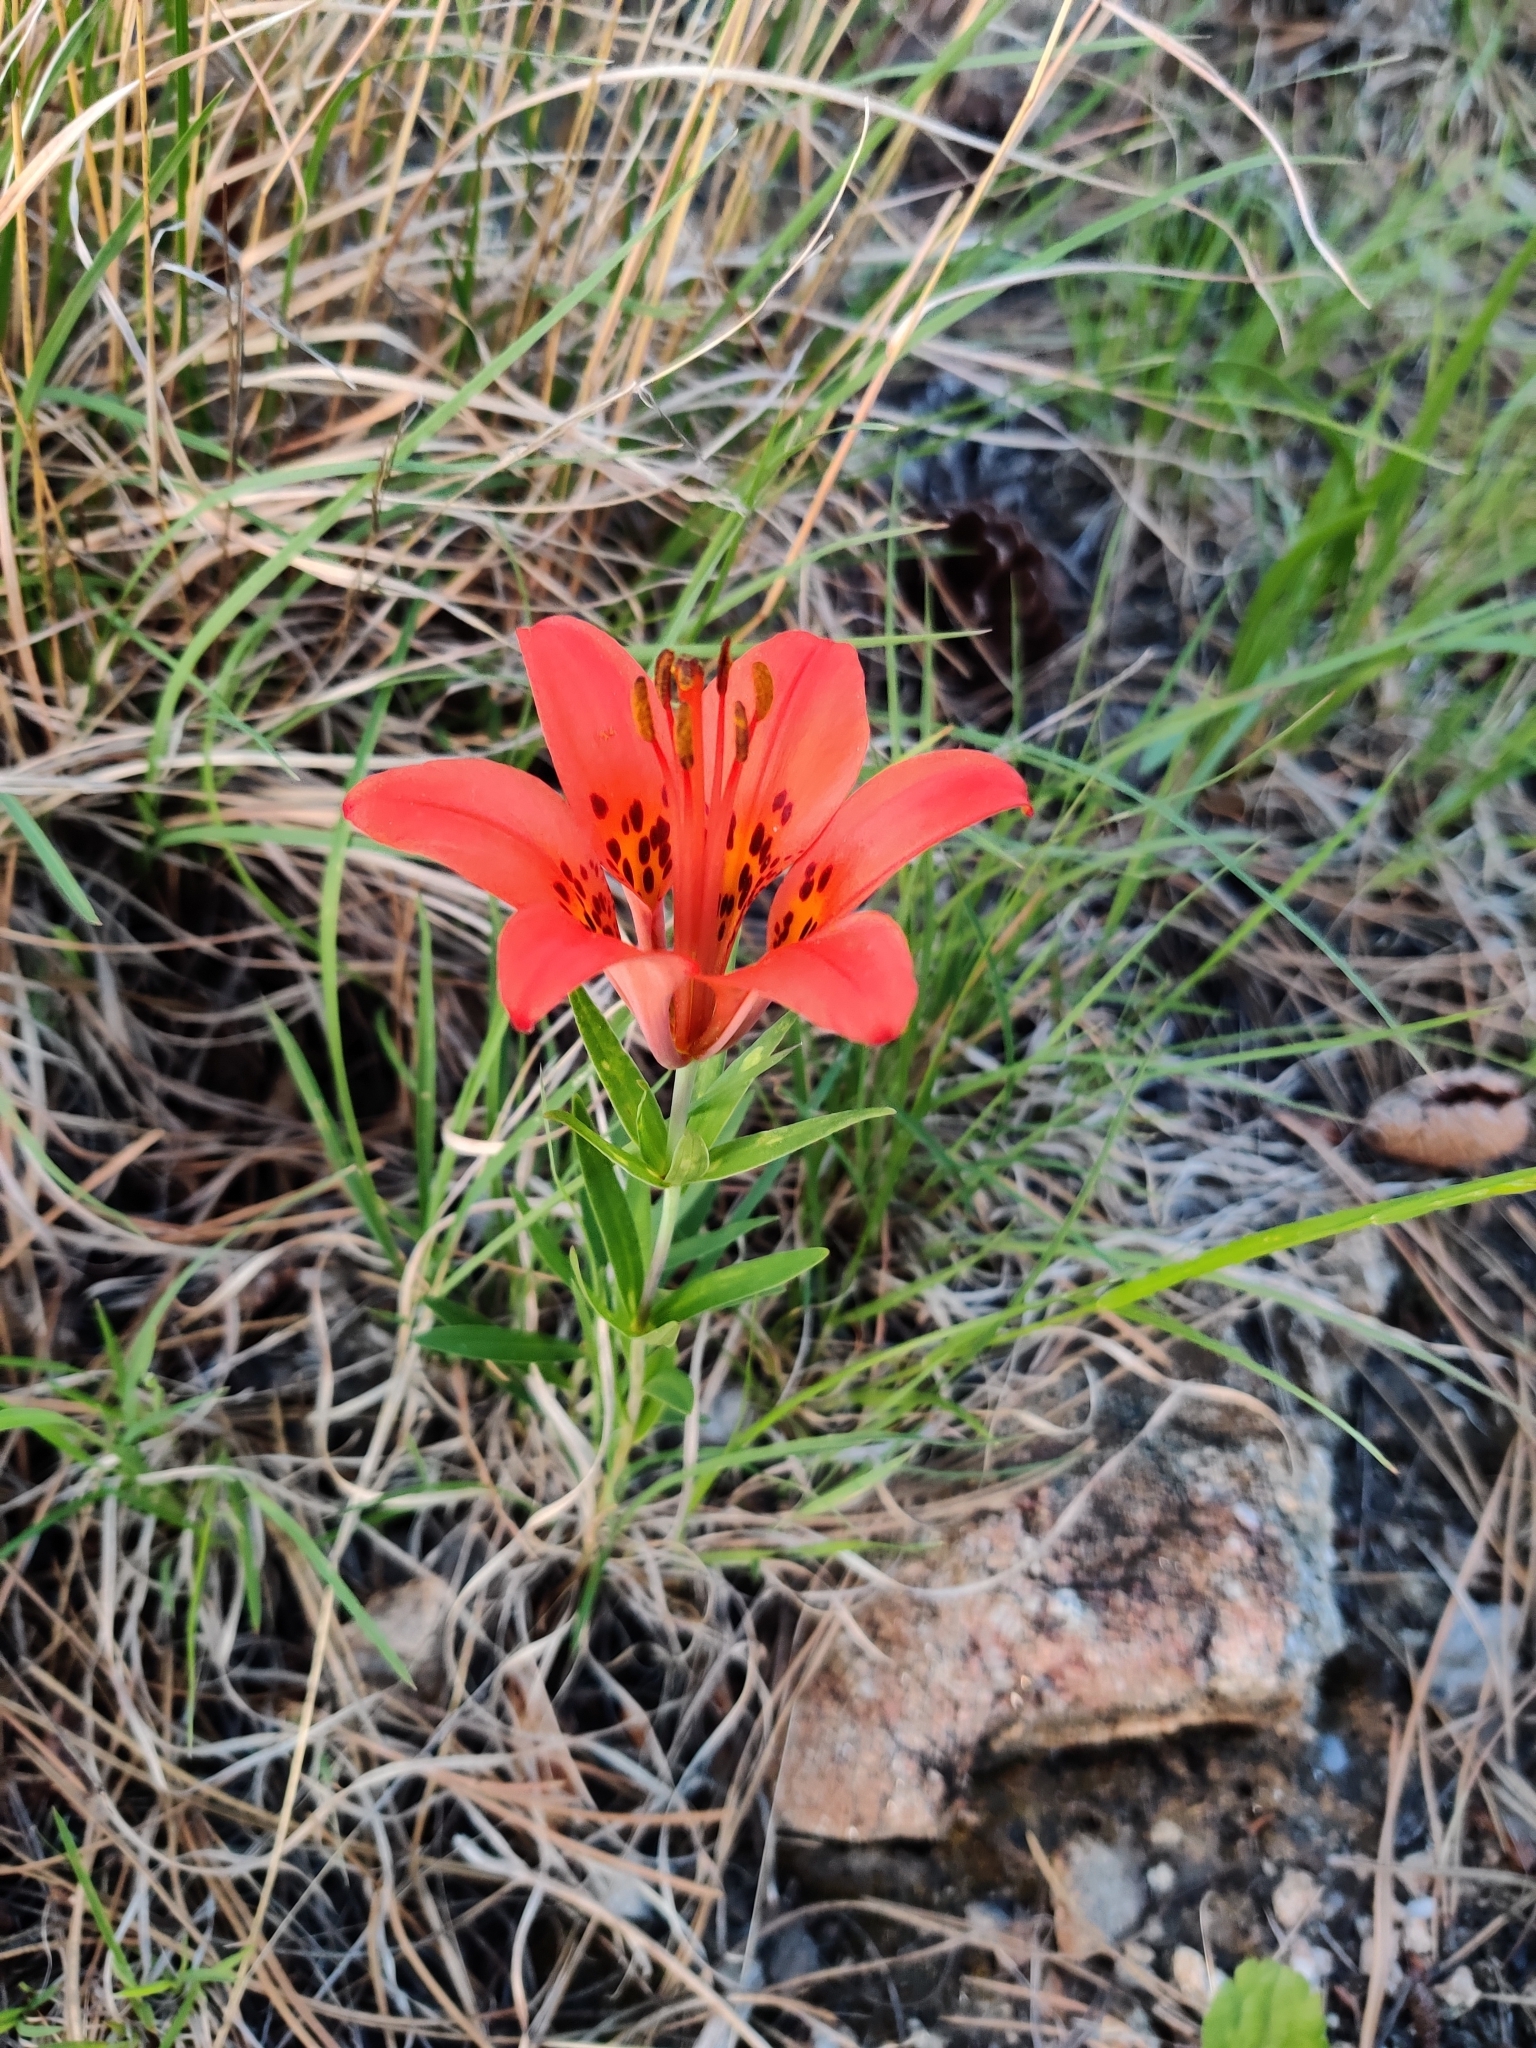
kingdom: Plantae
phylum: Tracheophyta
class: Liliopsida
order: Liliales
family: Liliaceae
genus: Lilium
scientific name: Lilium philadelphicum
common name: Red lily
